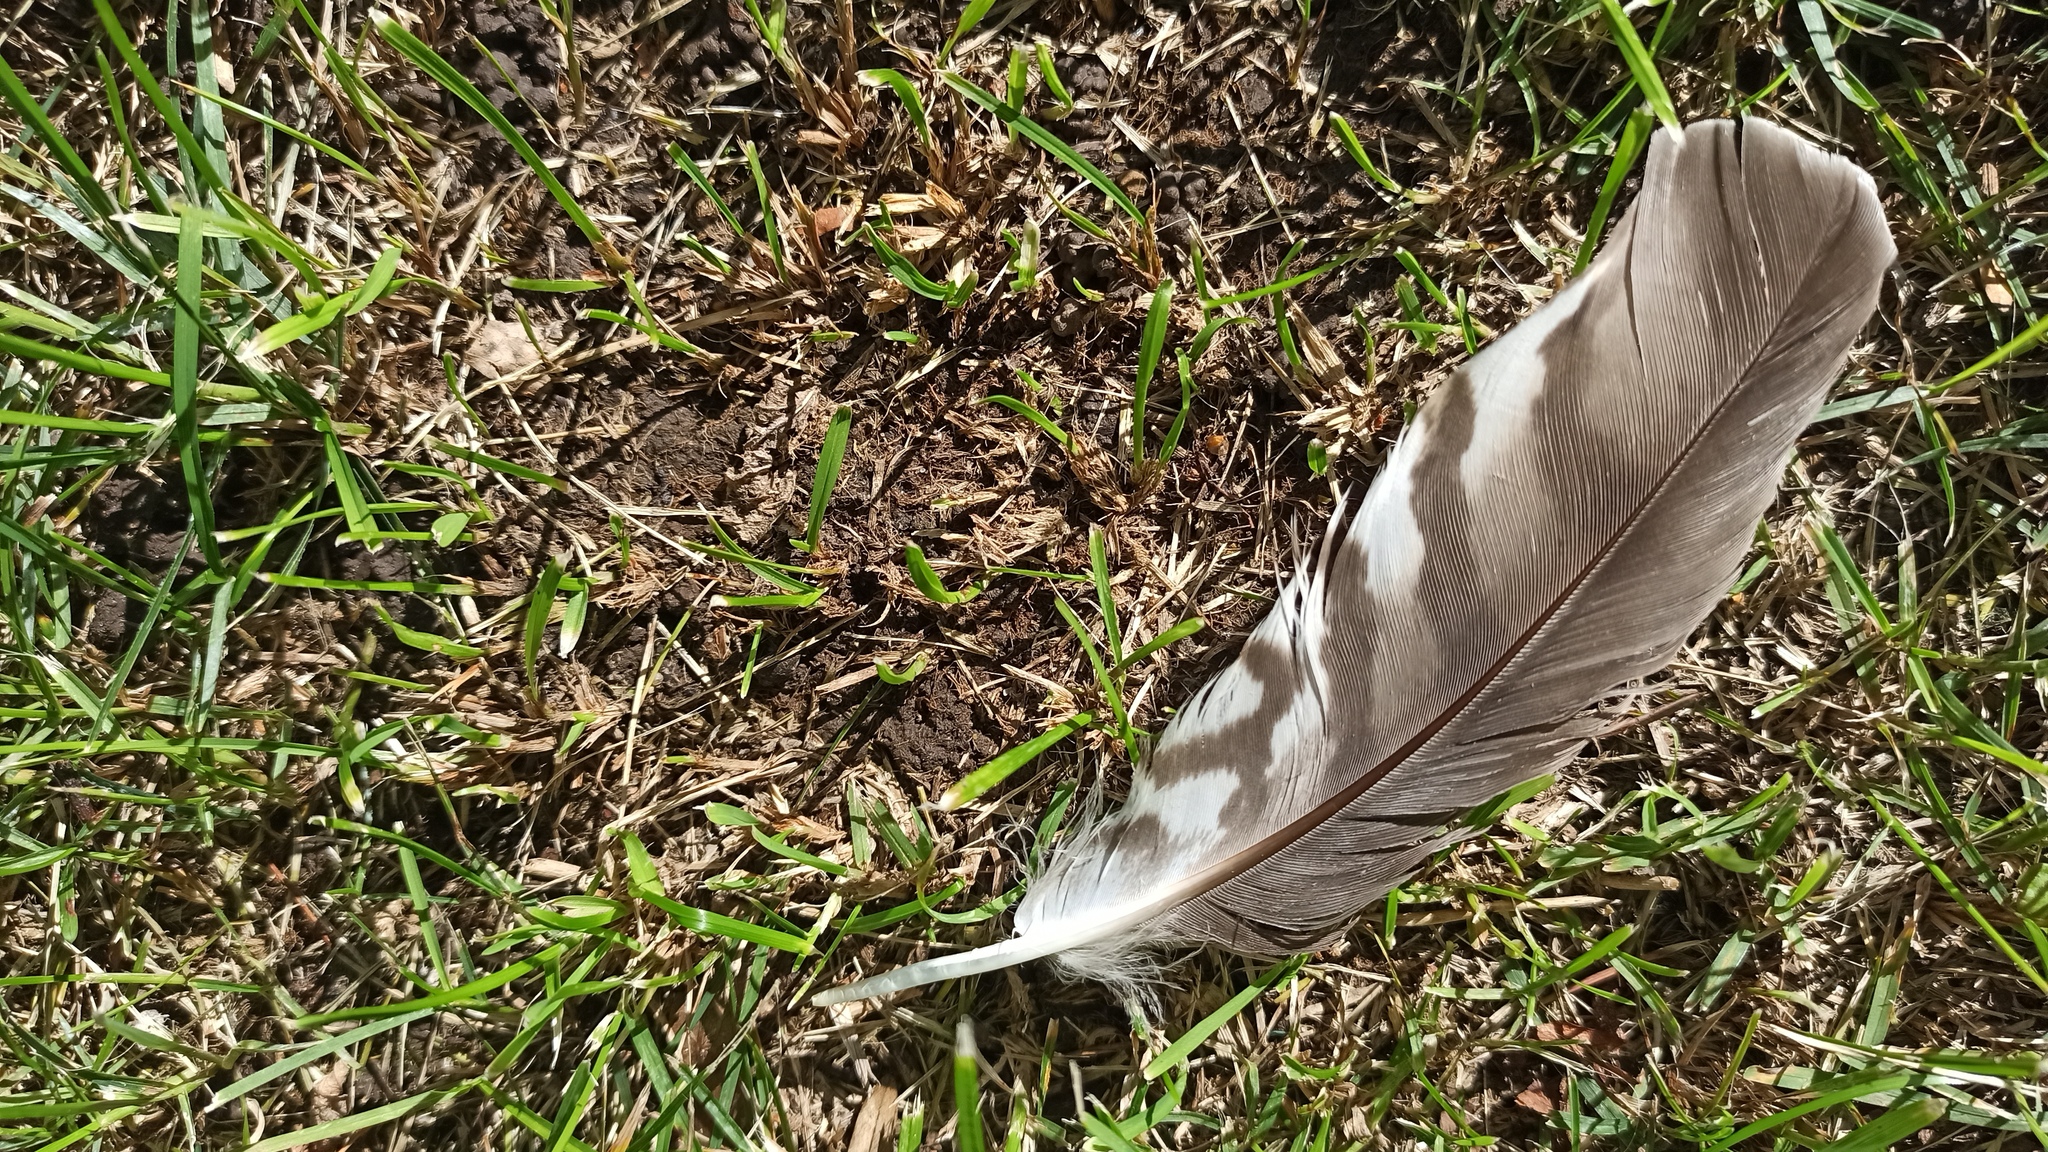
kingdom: Animalia
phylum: Chordata
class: Aves
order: Accipitriformes
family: Accipitridae
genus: Accipiter
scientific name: Accipiter nisus
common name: Eurasian sparrowhawk
